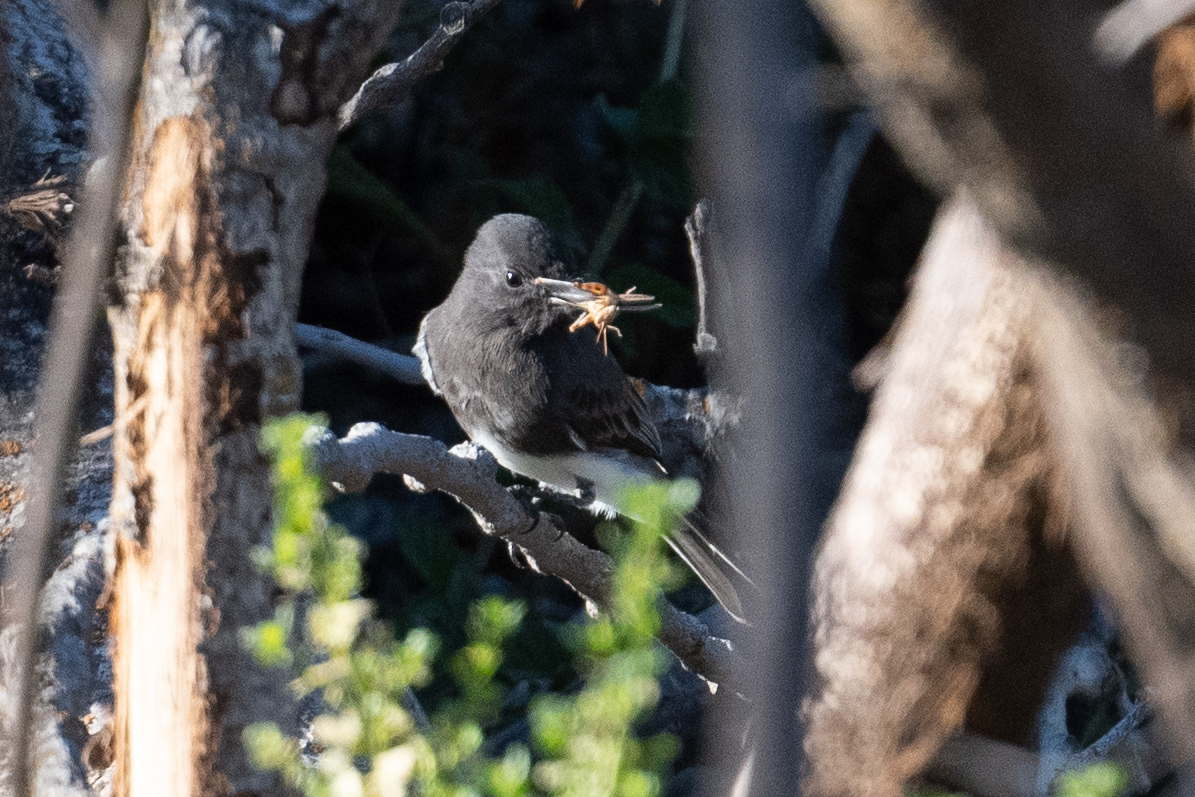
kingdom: Animalia
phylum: Chordata
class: Aves
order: Passeriformes
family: Tyrannidae
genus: Sayornis
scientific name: Sayornis nigricans
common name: Black phoebe
